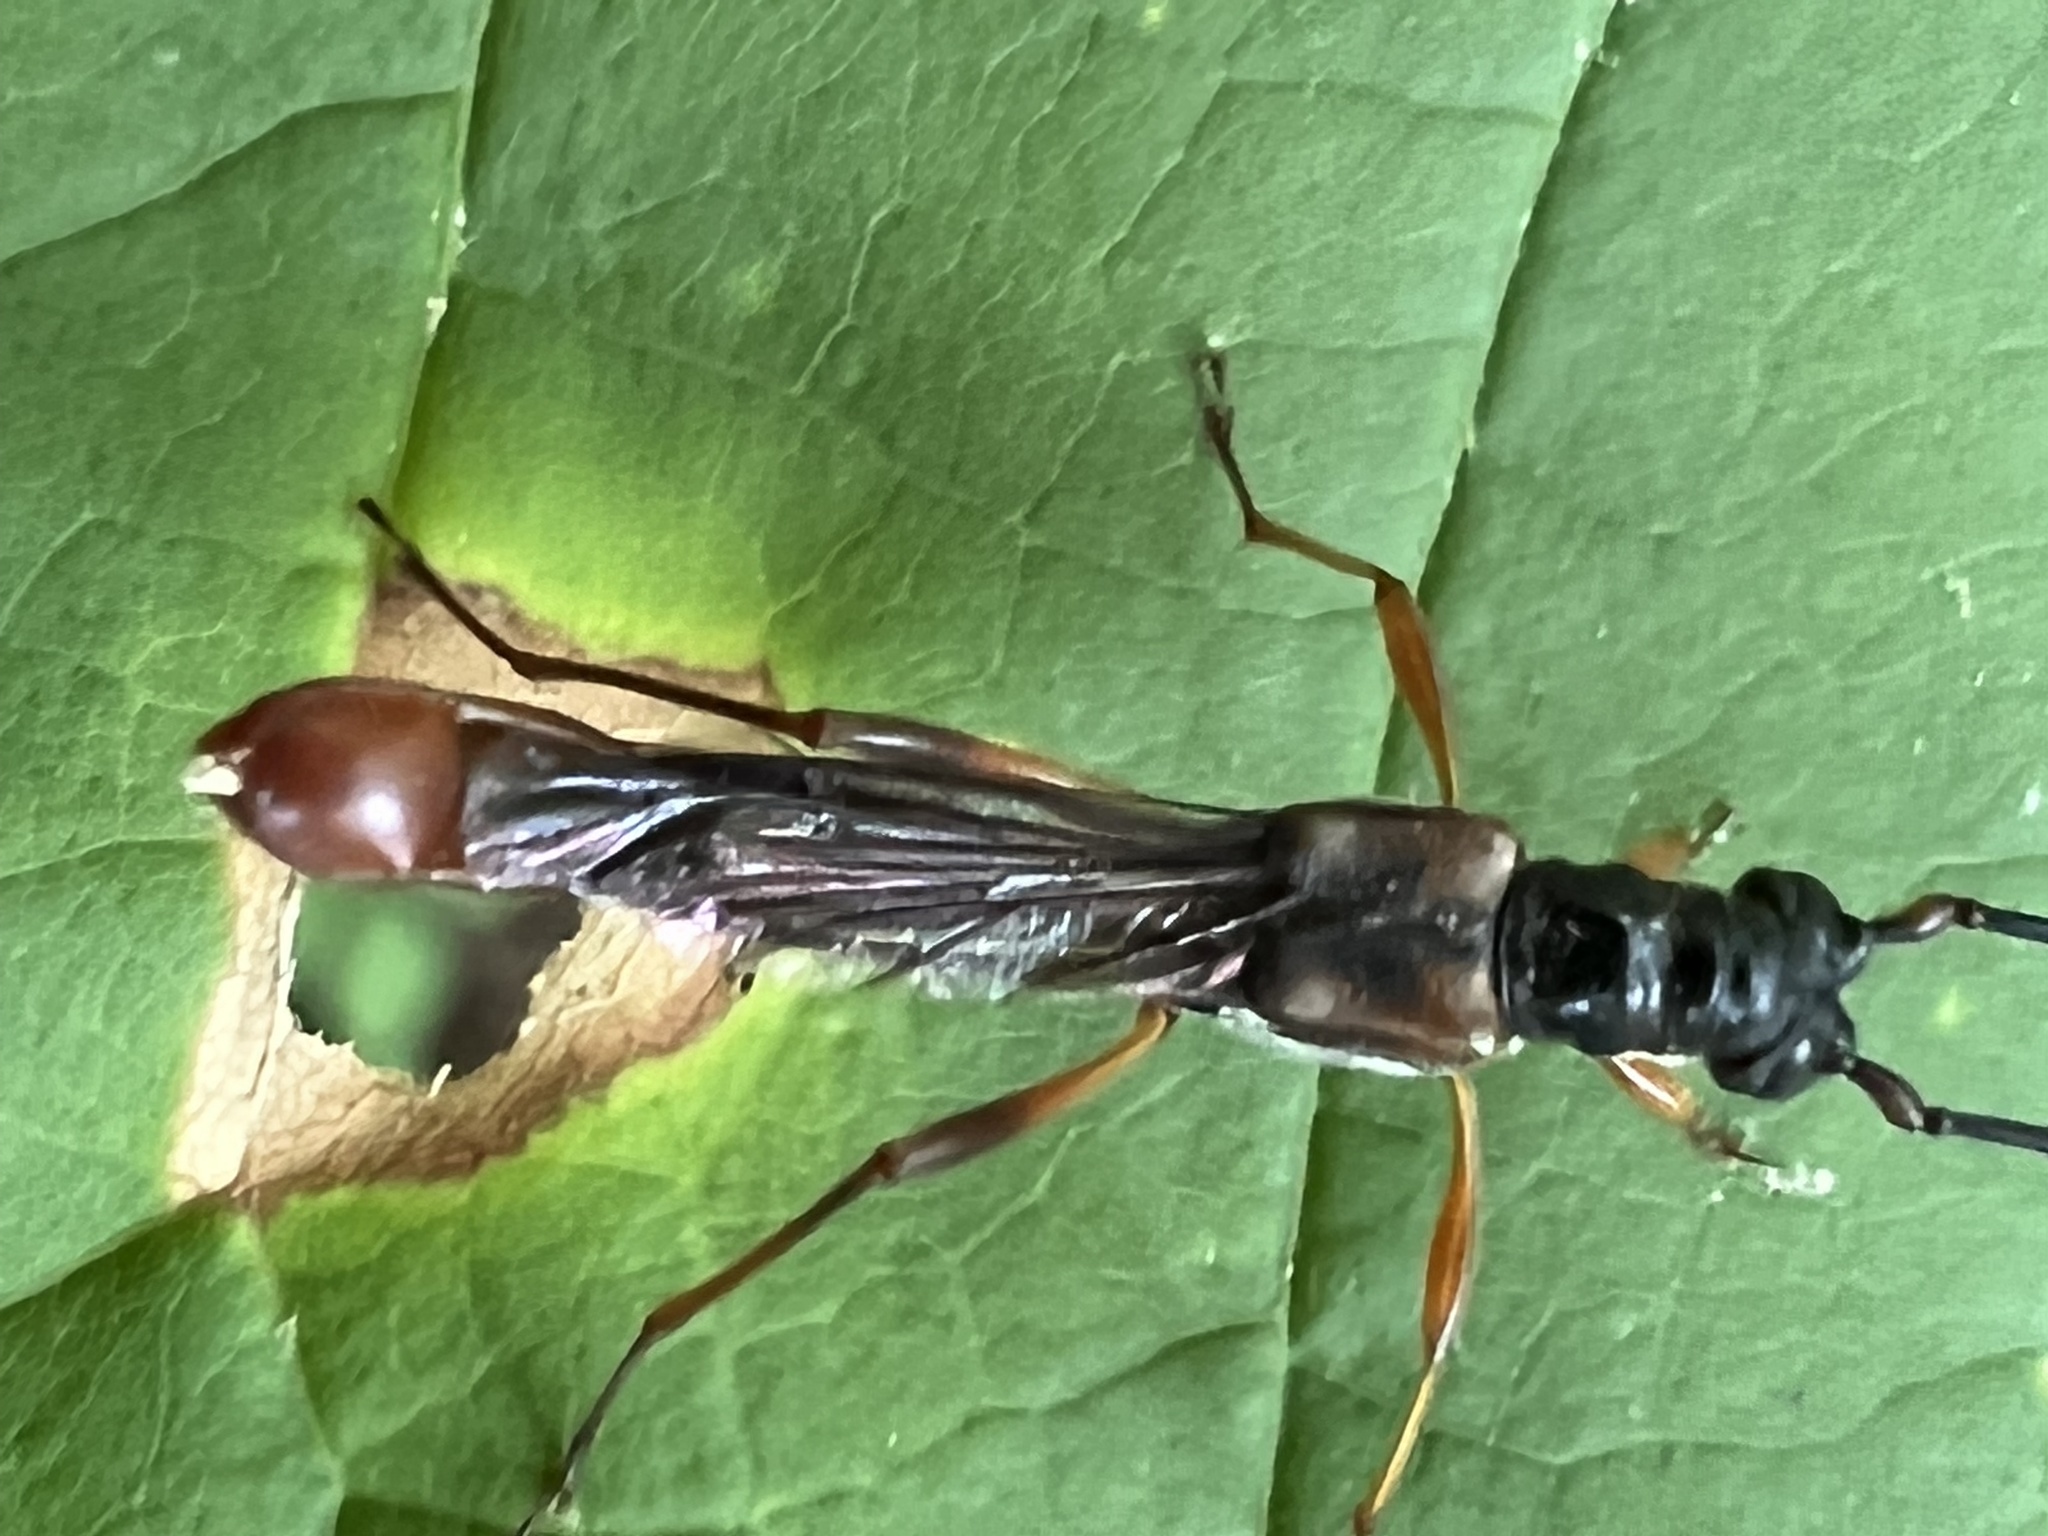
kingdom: Animalia
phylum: Arthropoda
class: Insecta
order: Coleoptera
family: Cerambycidae
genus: Necydalis
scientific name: Necydalis mellita
